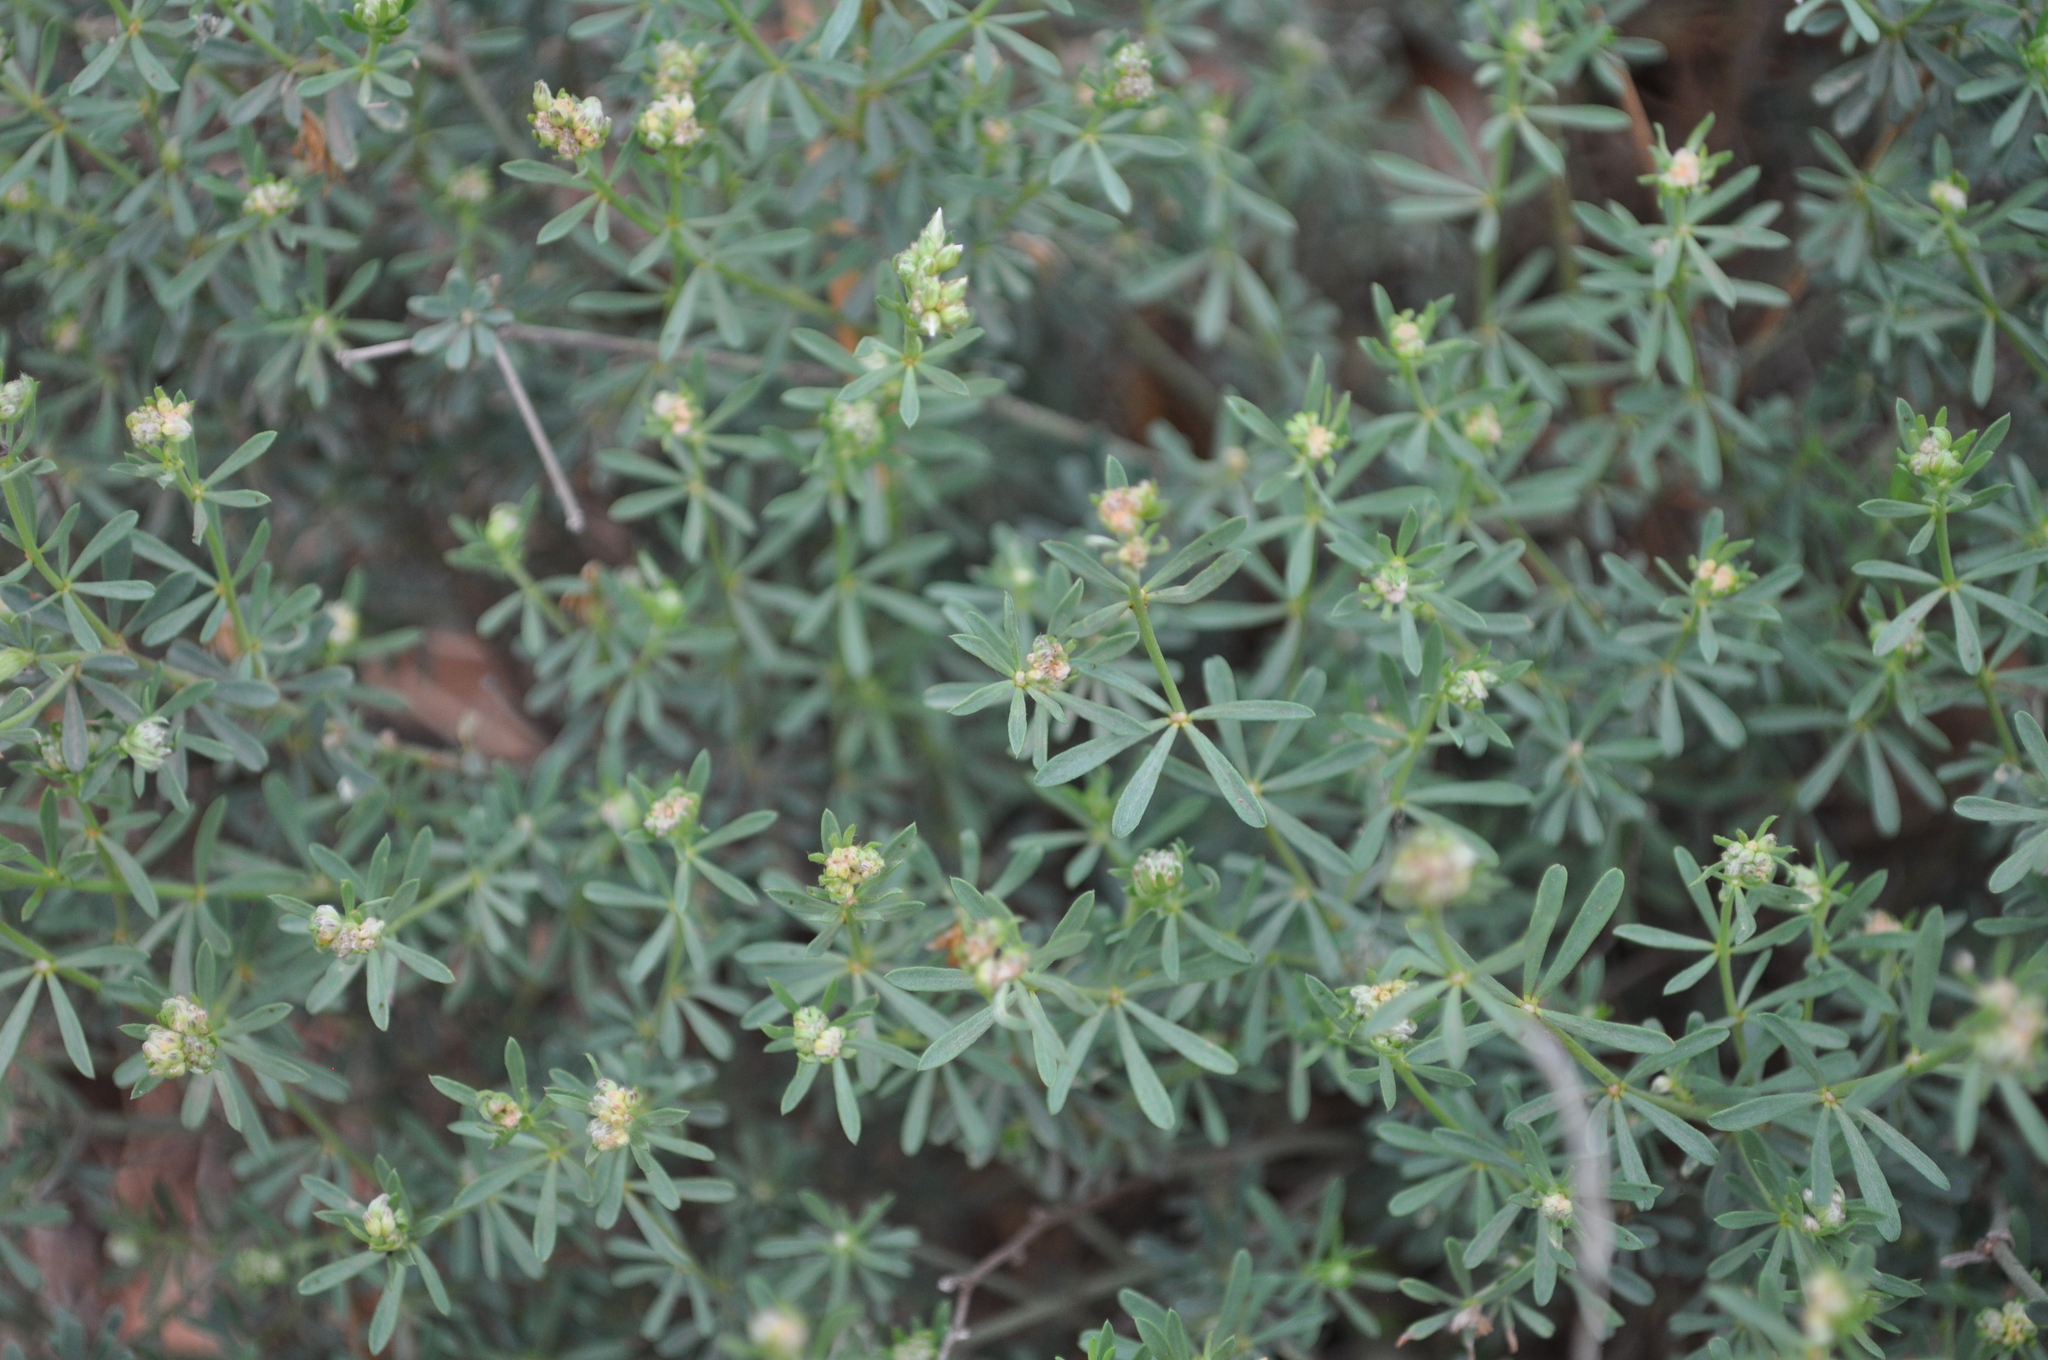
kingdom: Plantae
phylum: Tracheophyta
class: Magnoliopsida
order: Fabales
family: Fabaceae
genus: Lotus
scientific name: Lotus dorycnium
